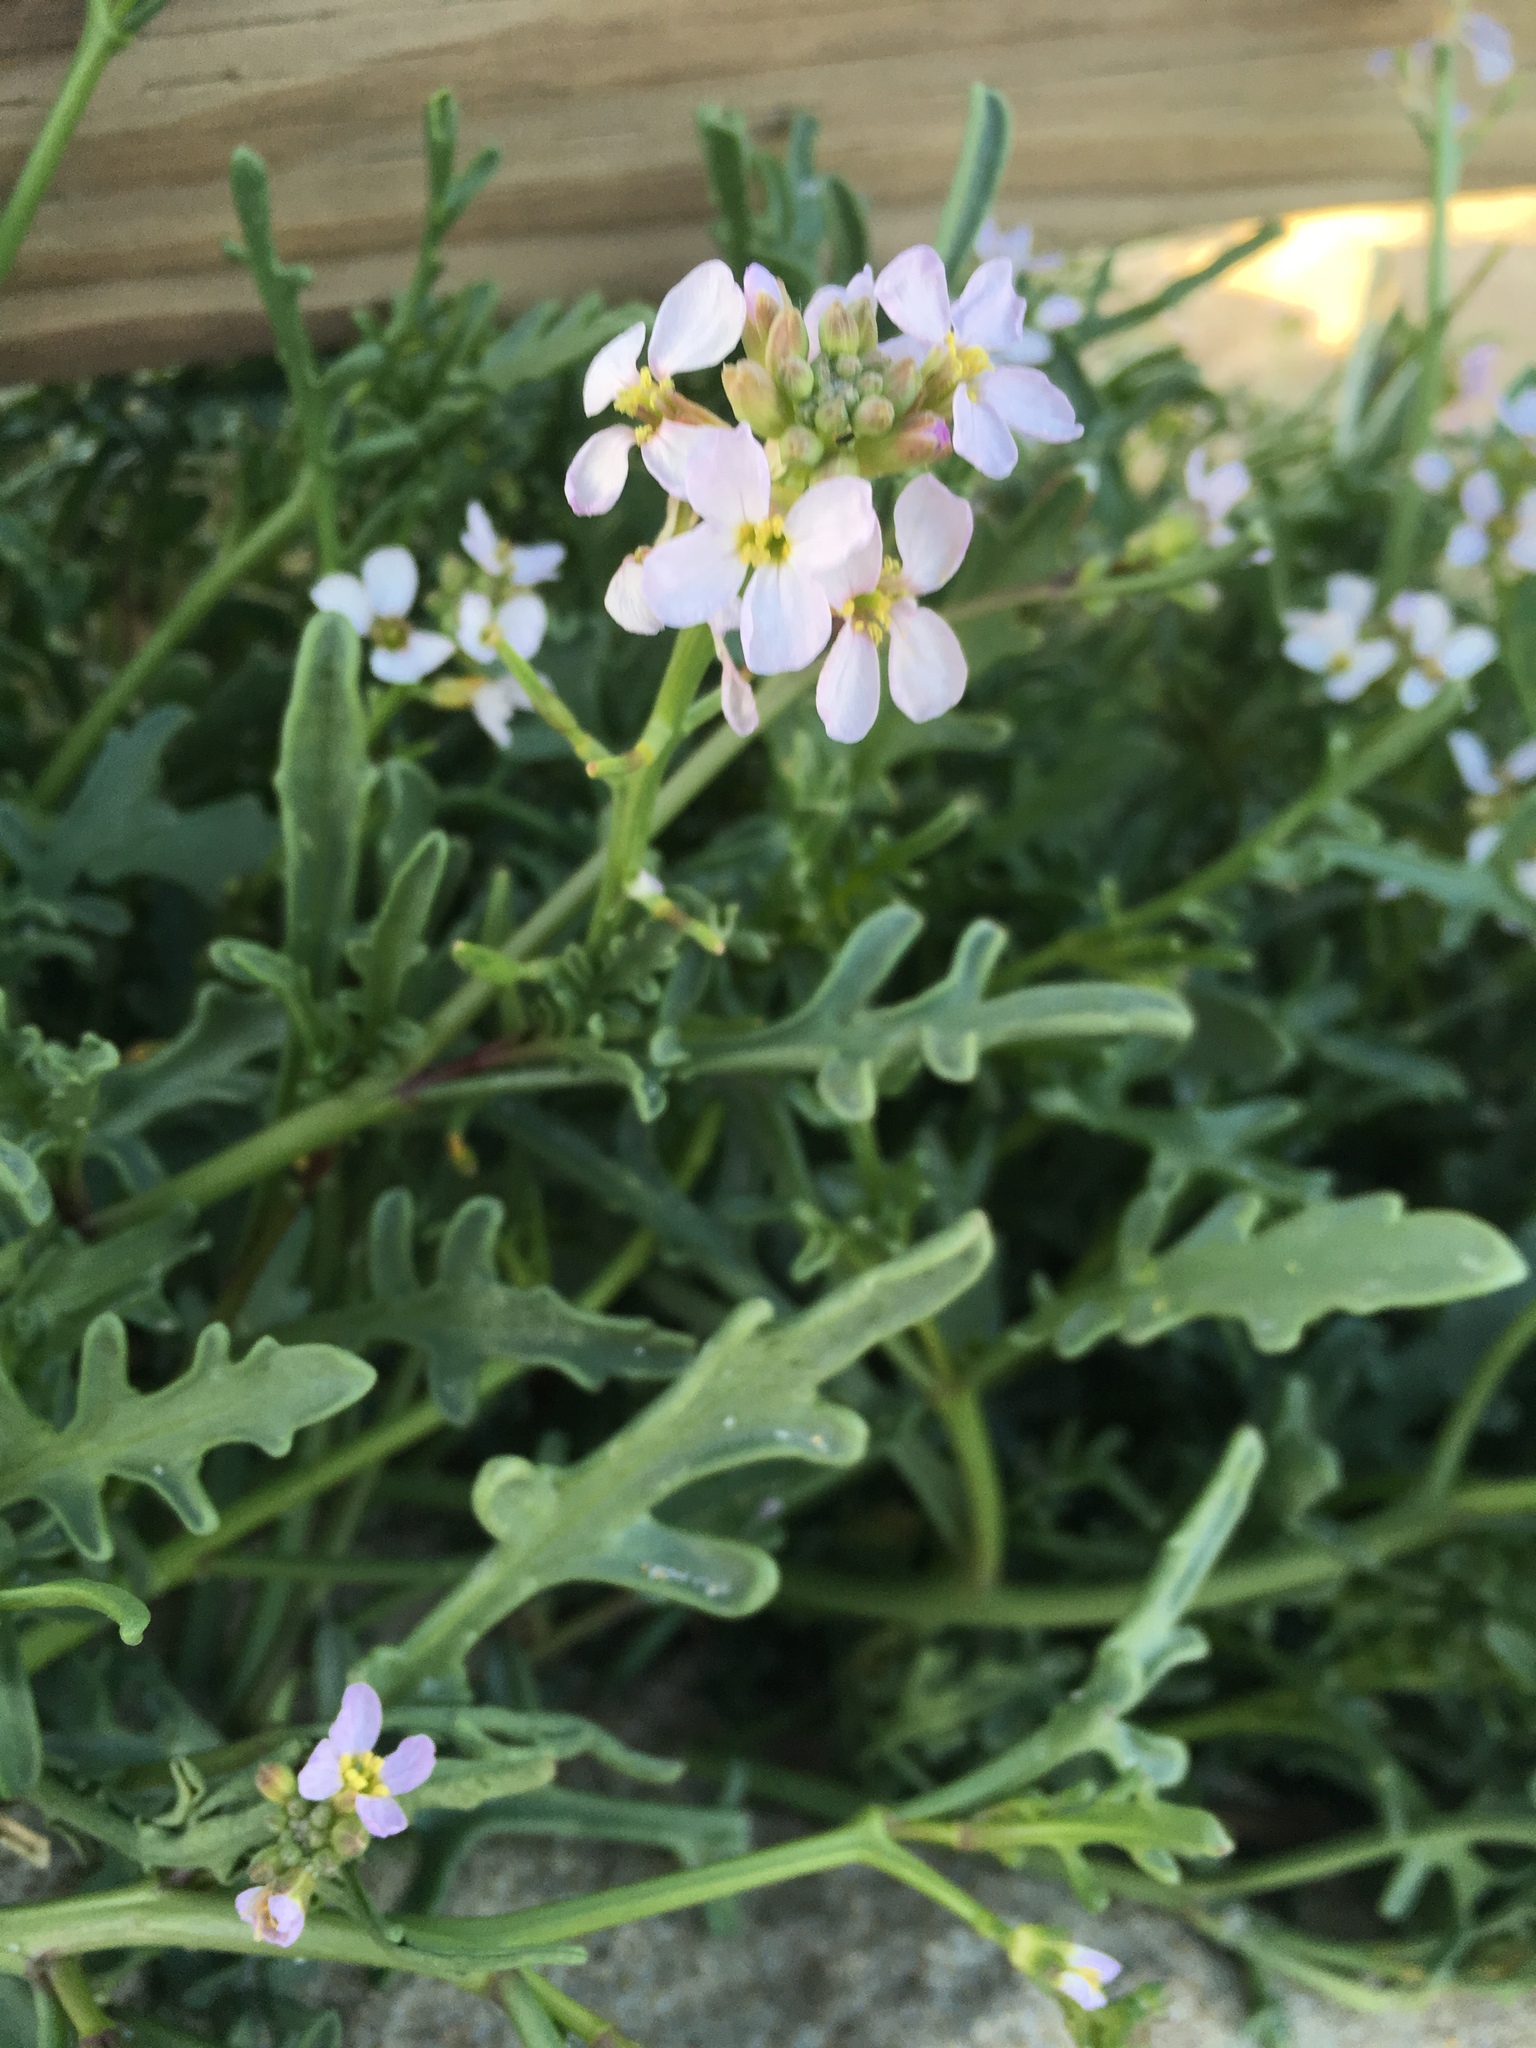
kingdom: Plantae
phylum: Tracheophyta
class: Magnoliopsida
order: Brassicales
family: Brassicaceae
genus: Cakile
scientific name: Cakile maritima
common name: Sea rocket
